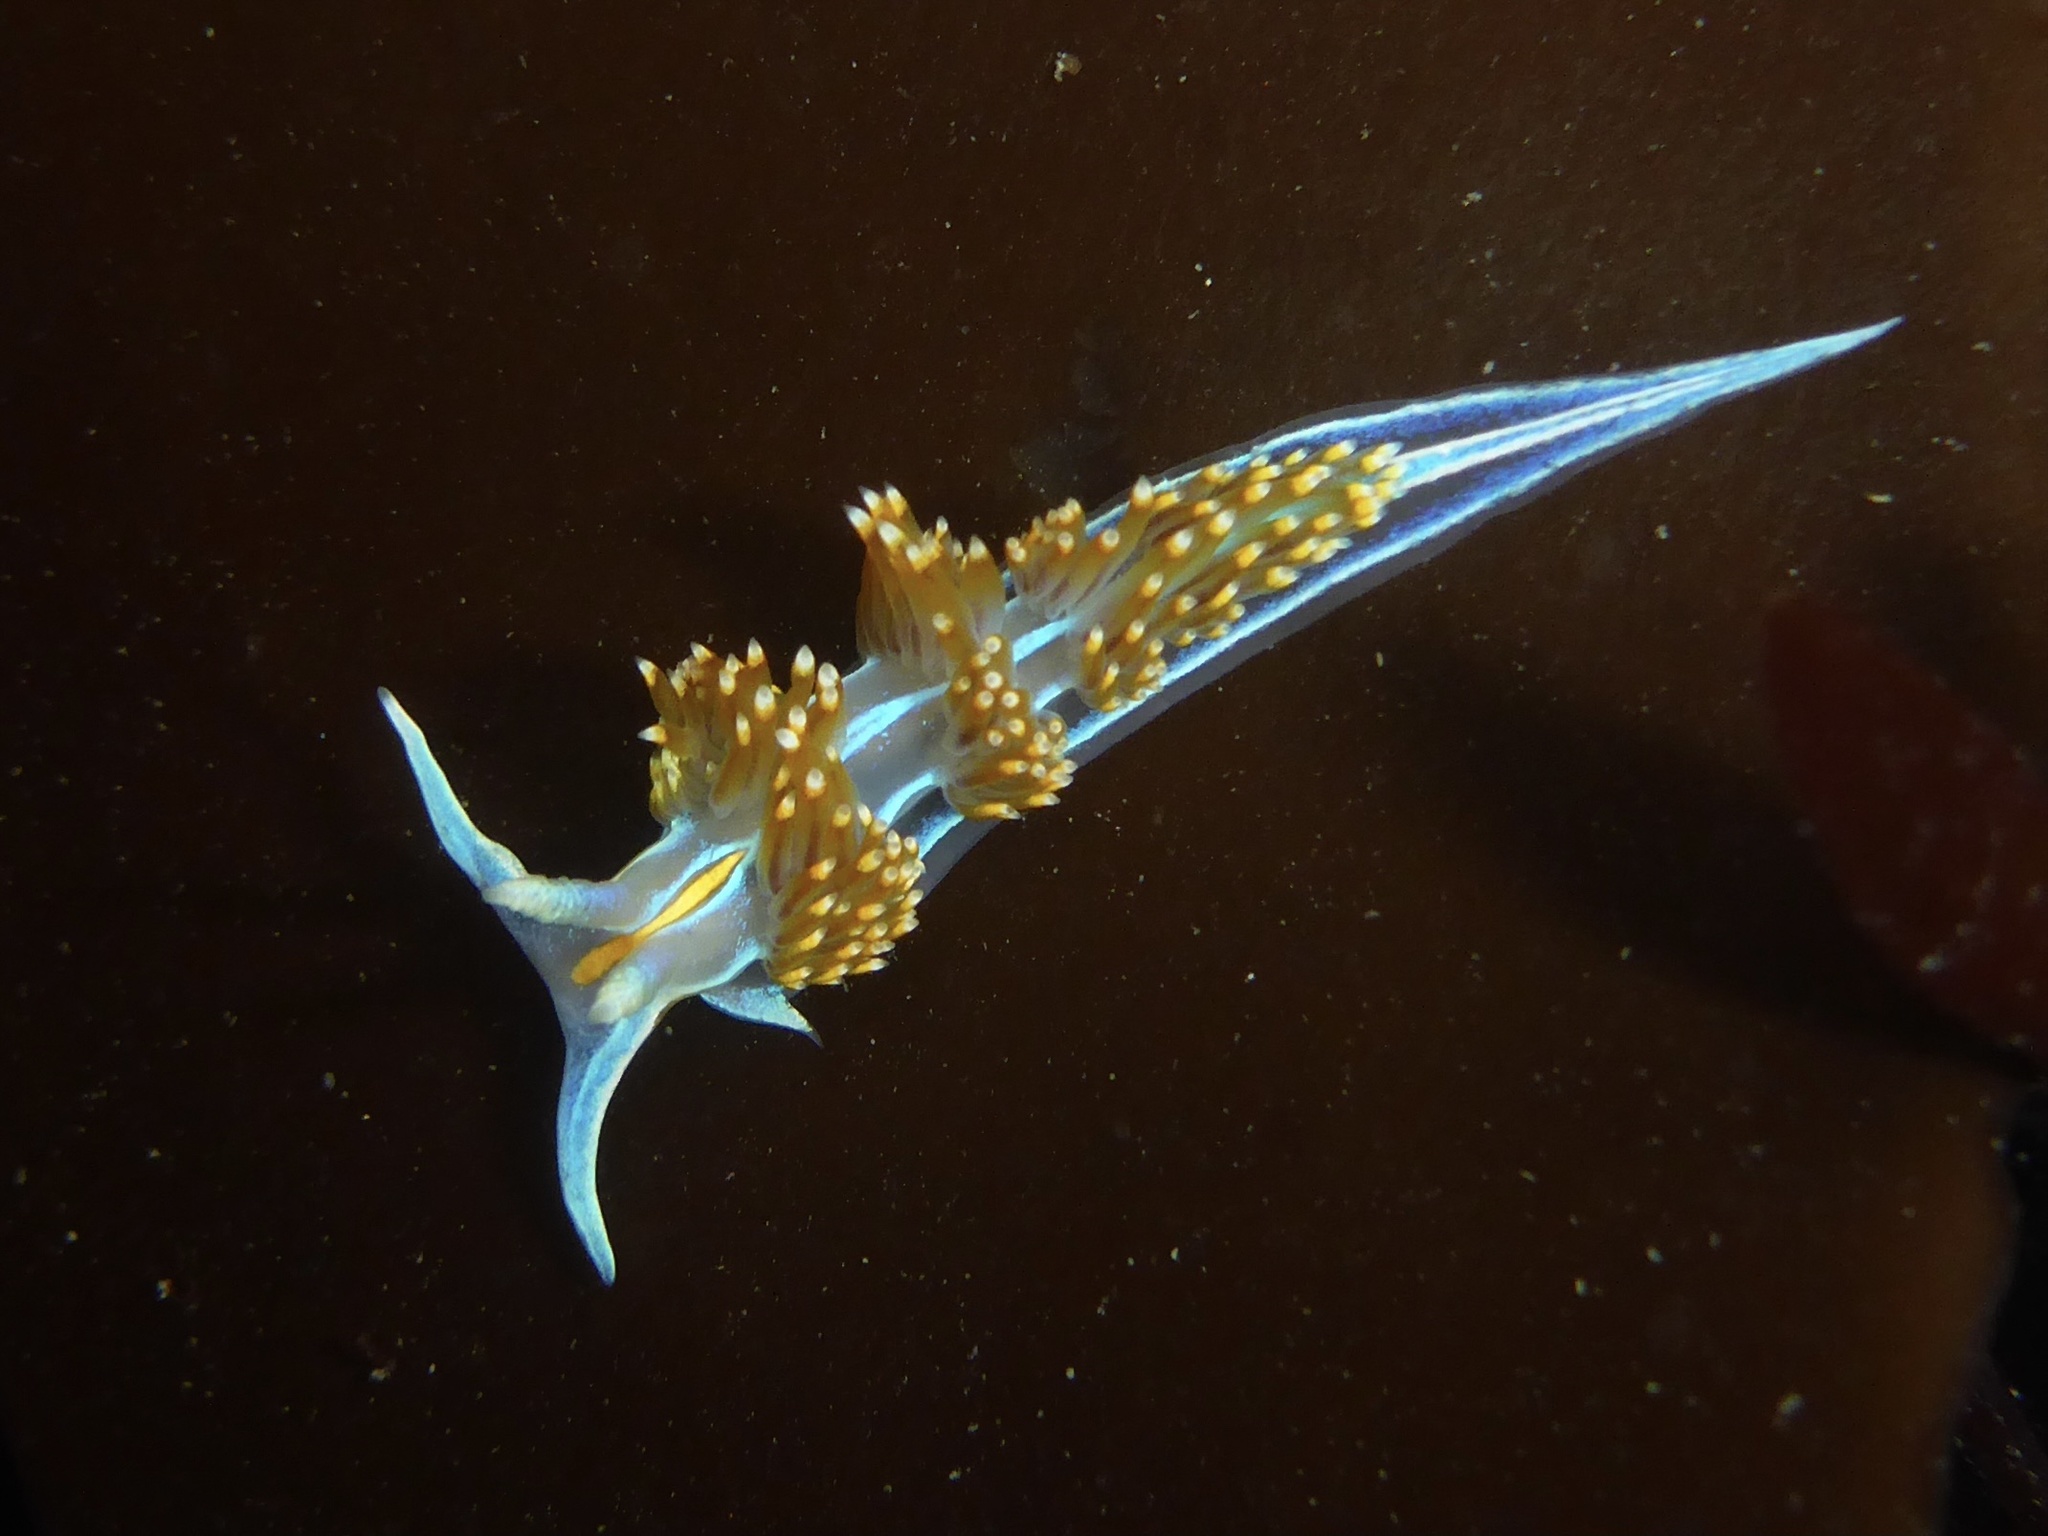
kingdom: Animalia
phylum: Mollusca
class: Gastropoda
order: Nudibranchia
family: Myrrhinidae
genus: Hermissenda
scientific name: Hermissenda opalescens
